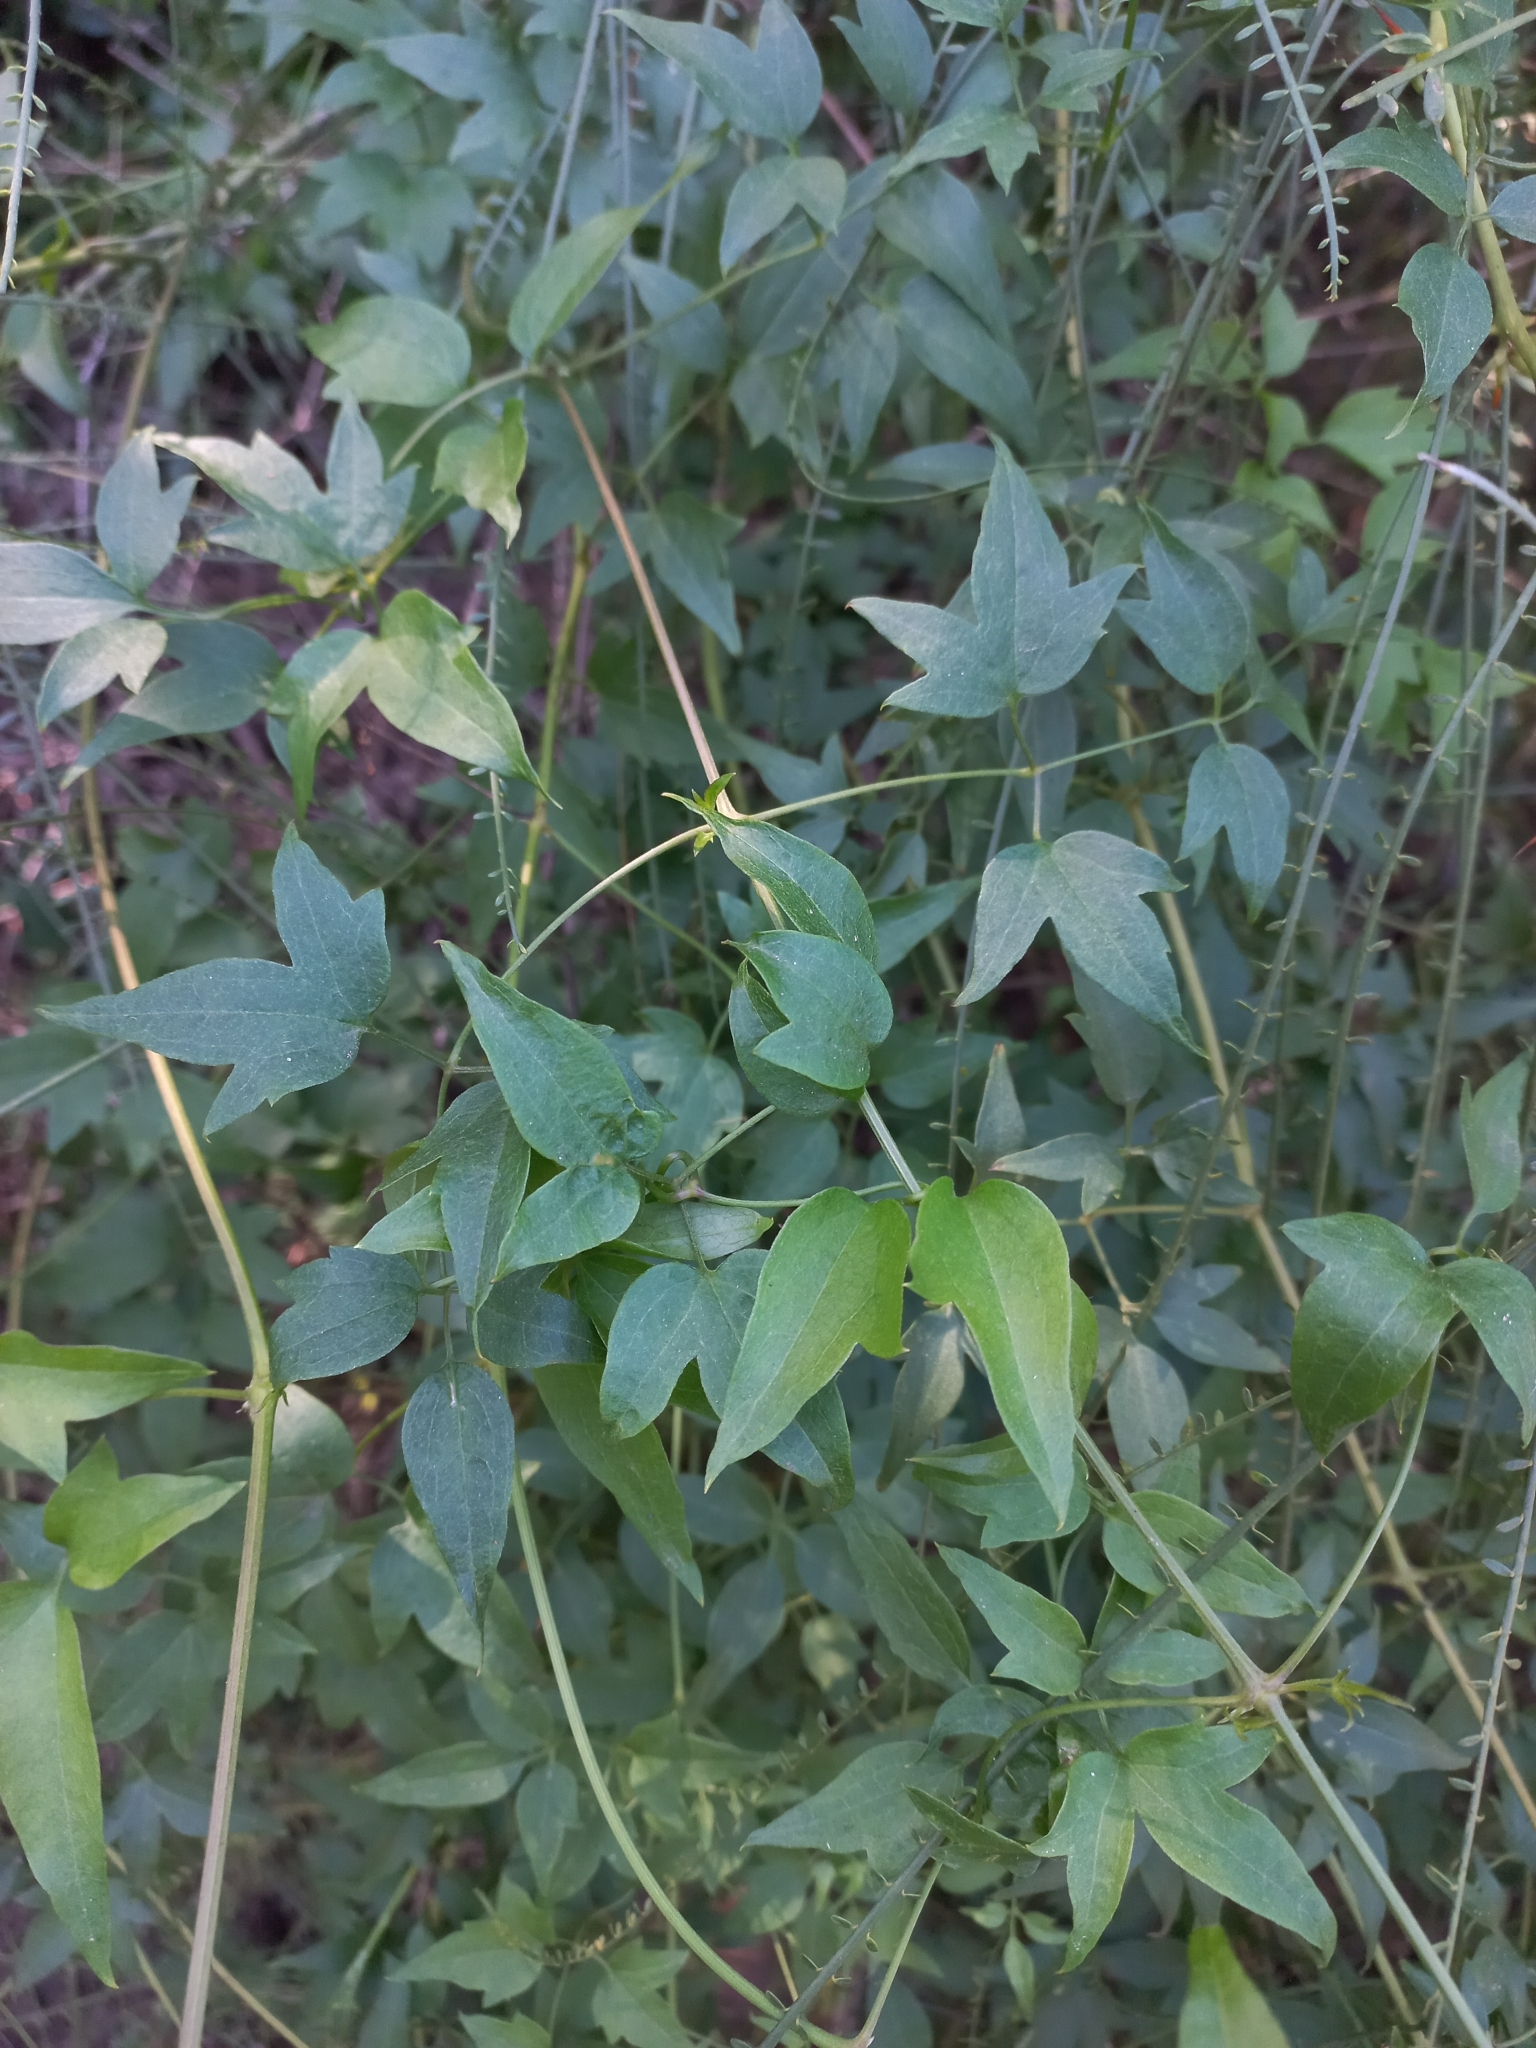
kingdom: Plantae
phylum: Tracheophyta
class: Magnoliopsida
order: Ranunculales
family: Ranunculaceae
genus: Clematis
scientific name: Clematis montevidensis
